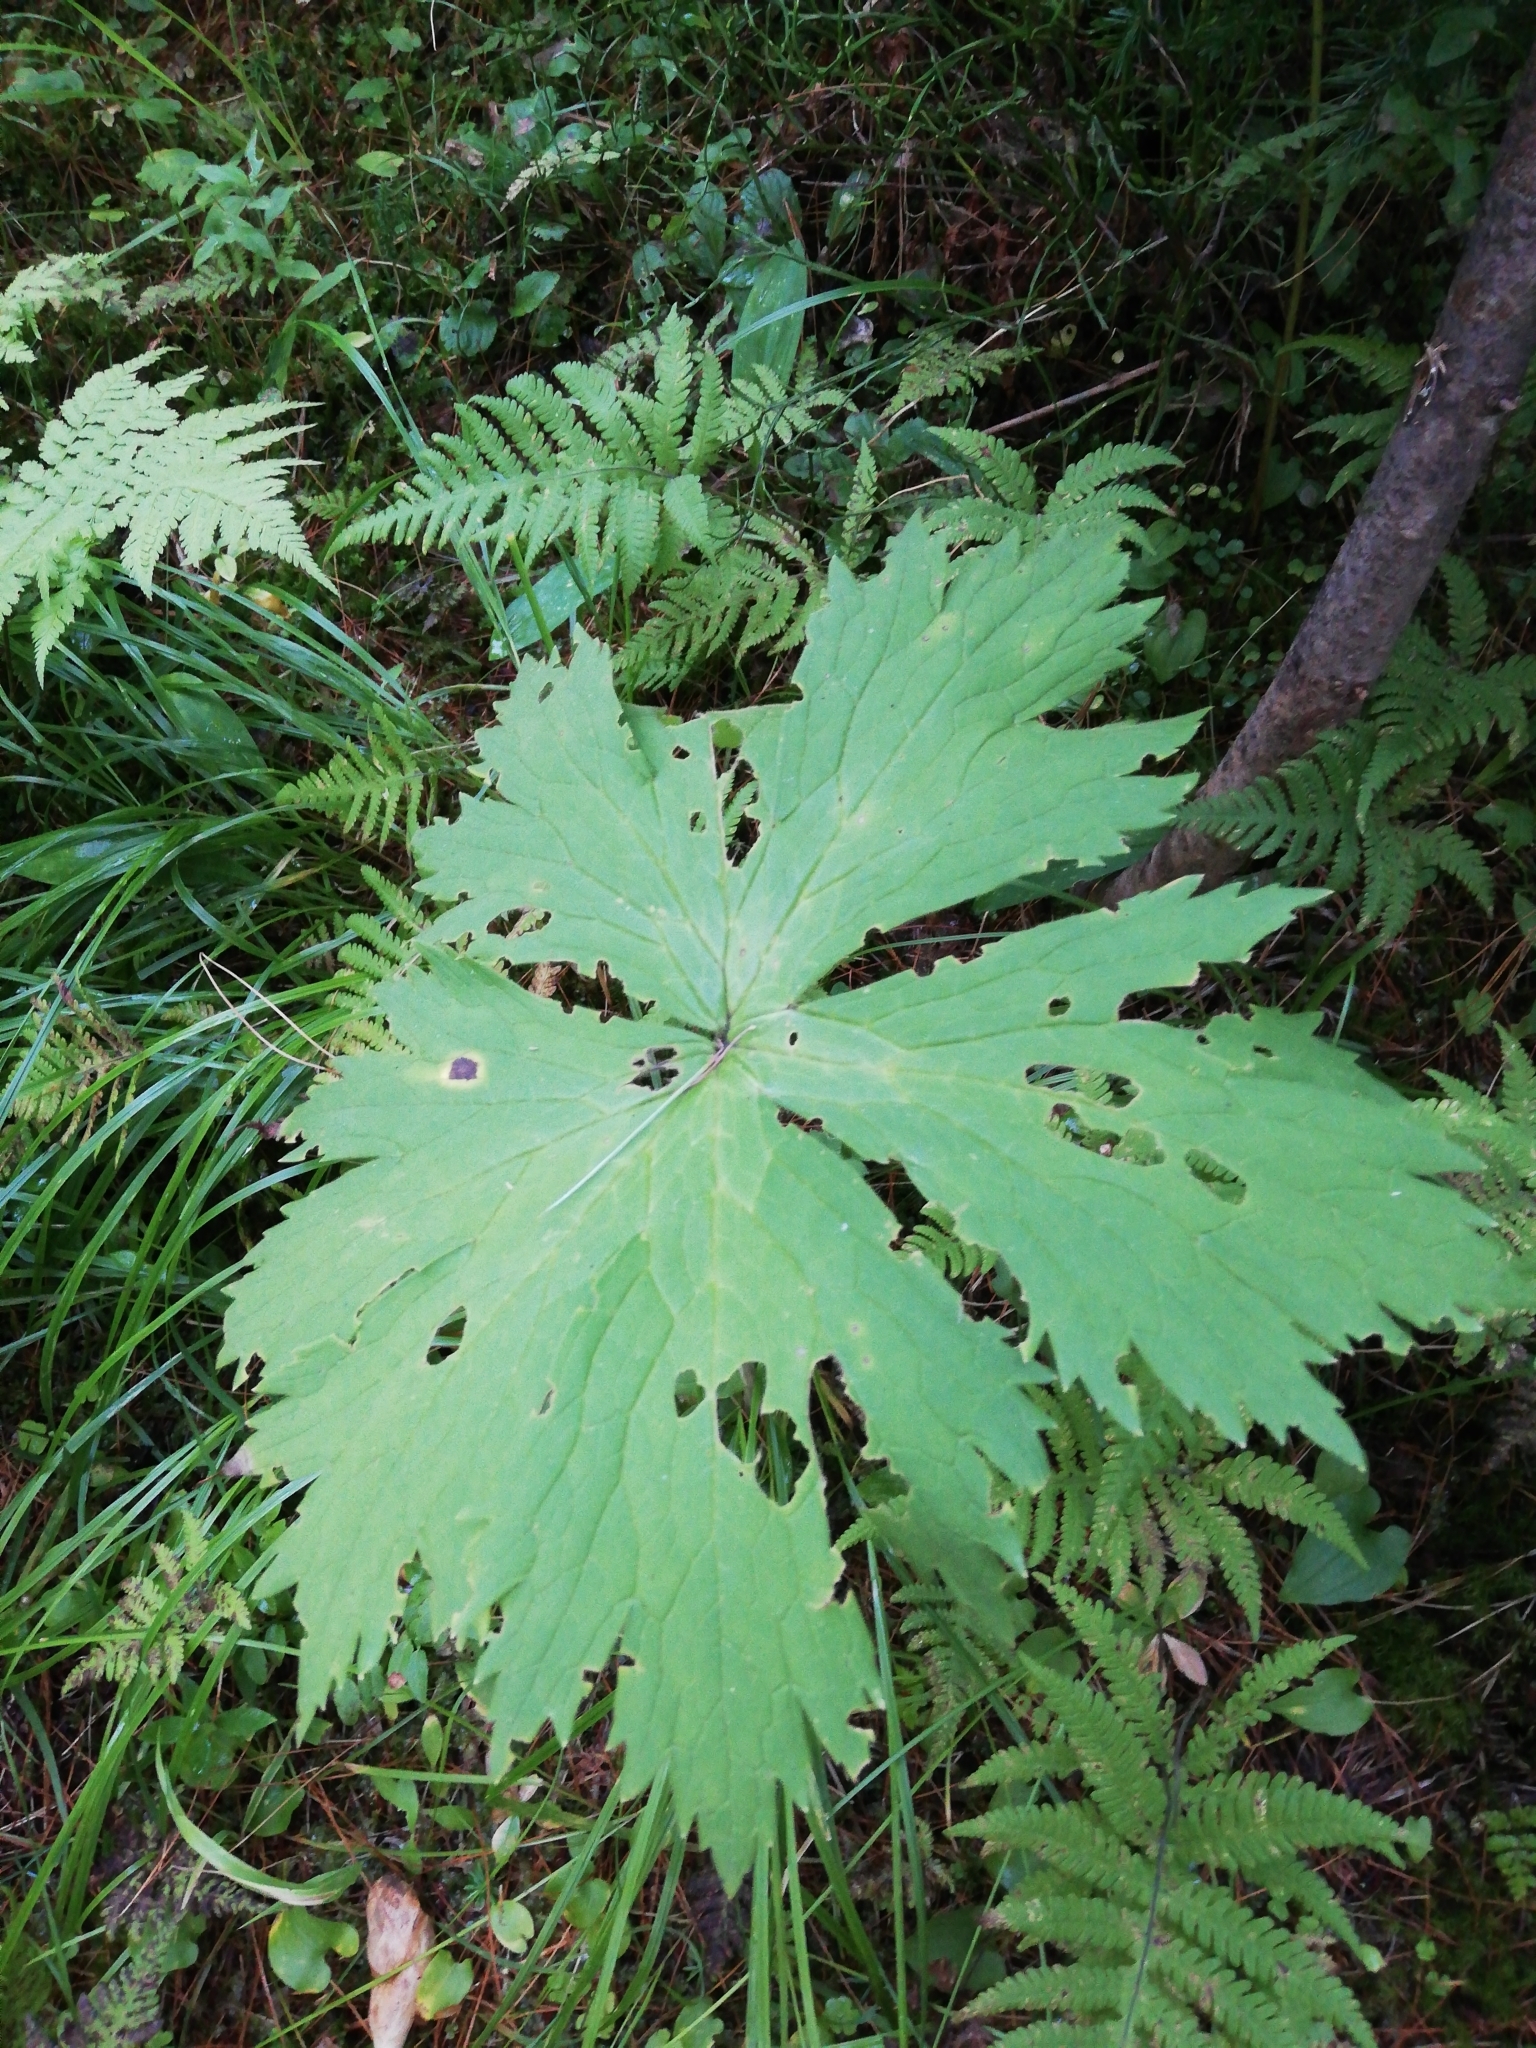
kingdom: Plantae
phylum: Tracheophyta
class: Magnoliopsida
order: Ranunculales
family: Ranunculaceae
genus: Aconitum
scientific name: Aconitum septentrionale
